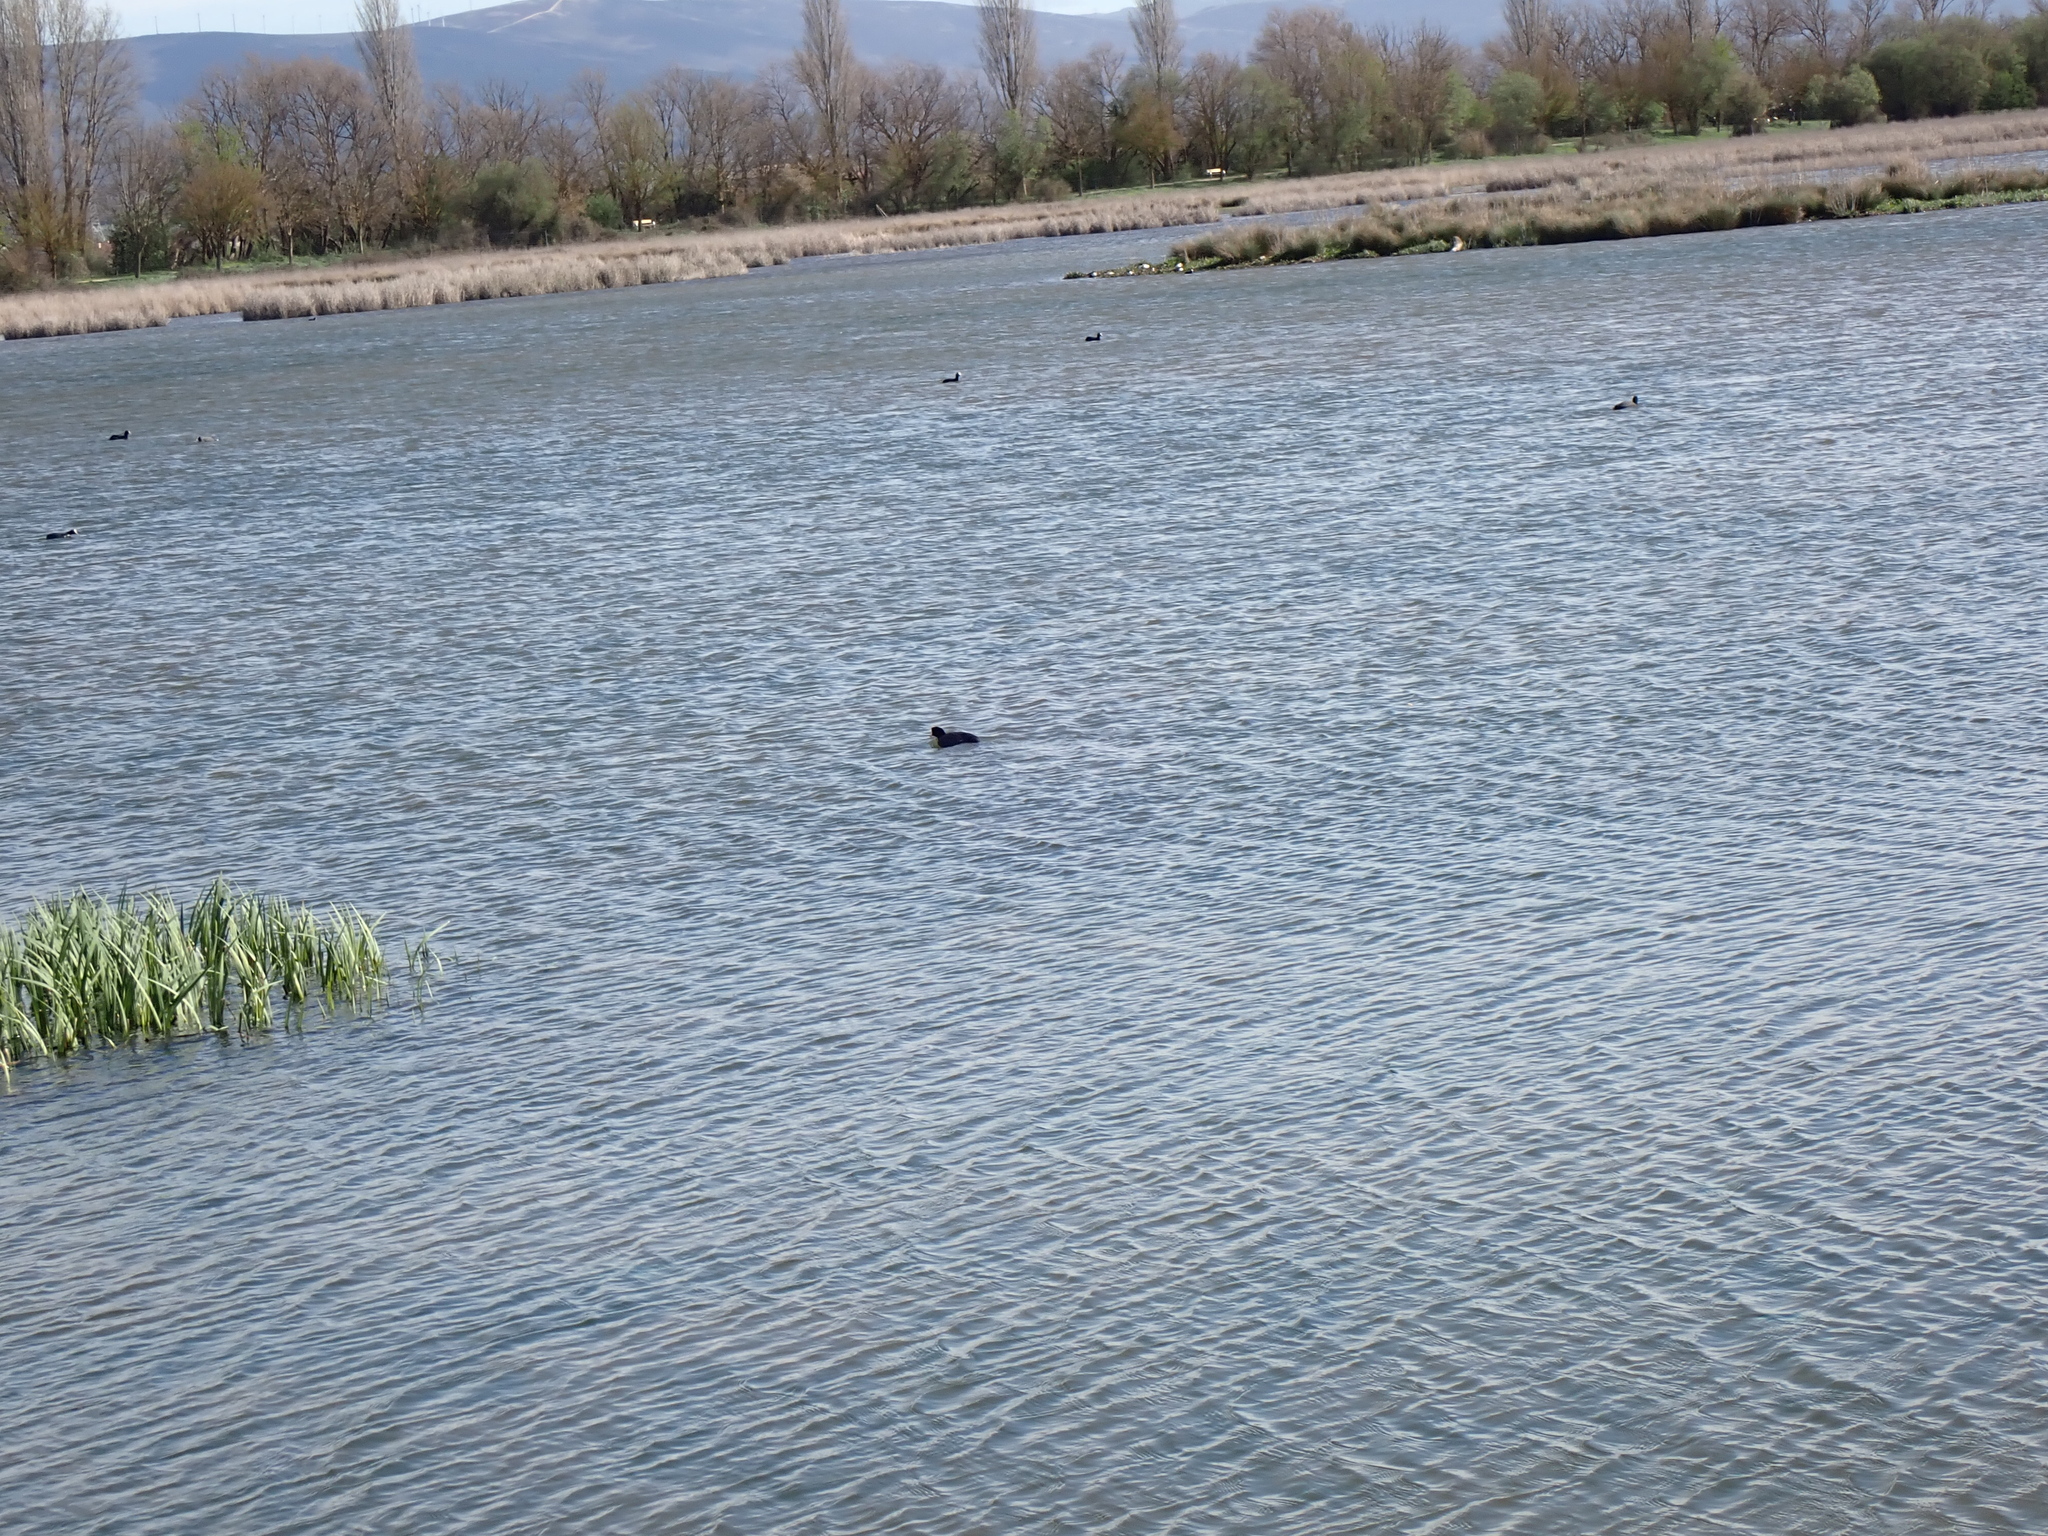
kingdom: Animalia
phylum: Chordata
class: Aves
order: Gruiformes
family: Rallidae
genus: Fulica
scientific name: Fulica atra
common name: Eurasian coot
